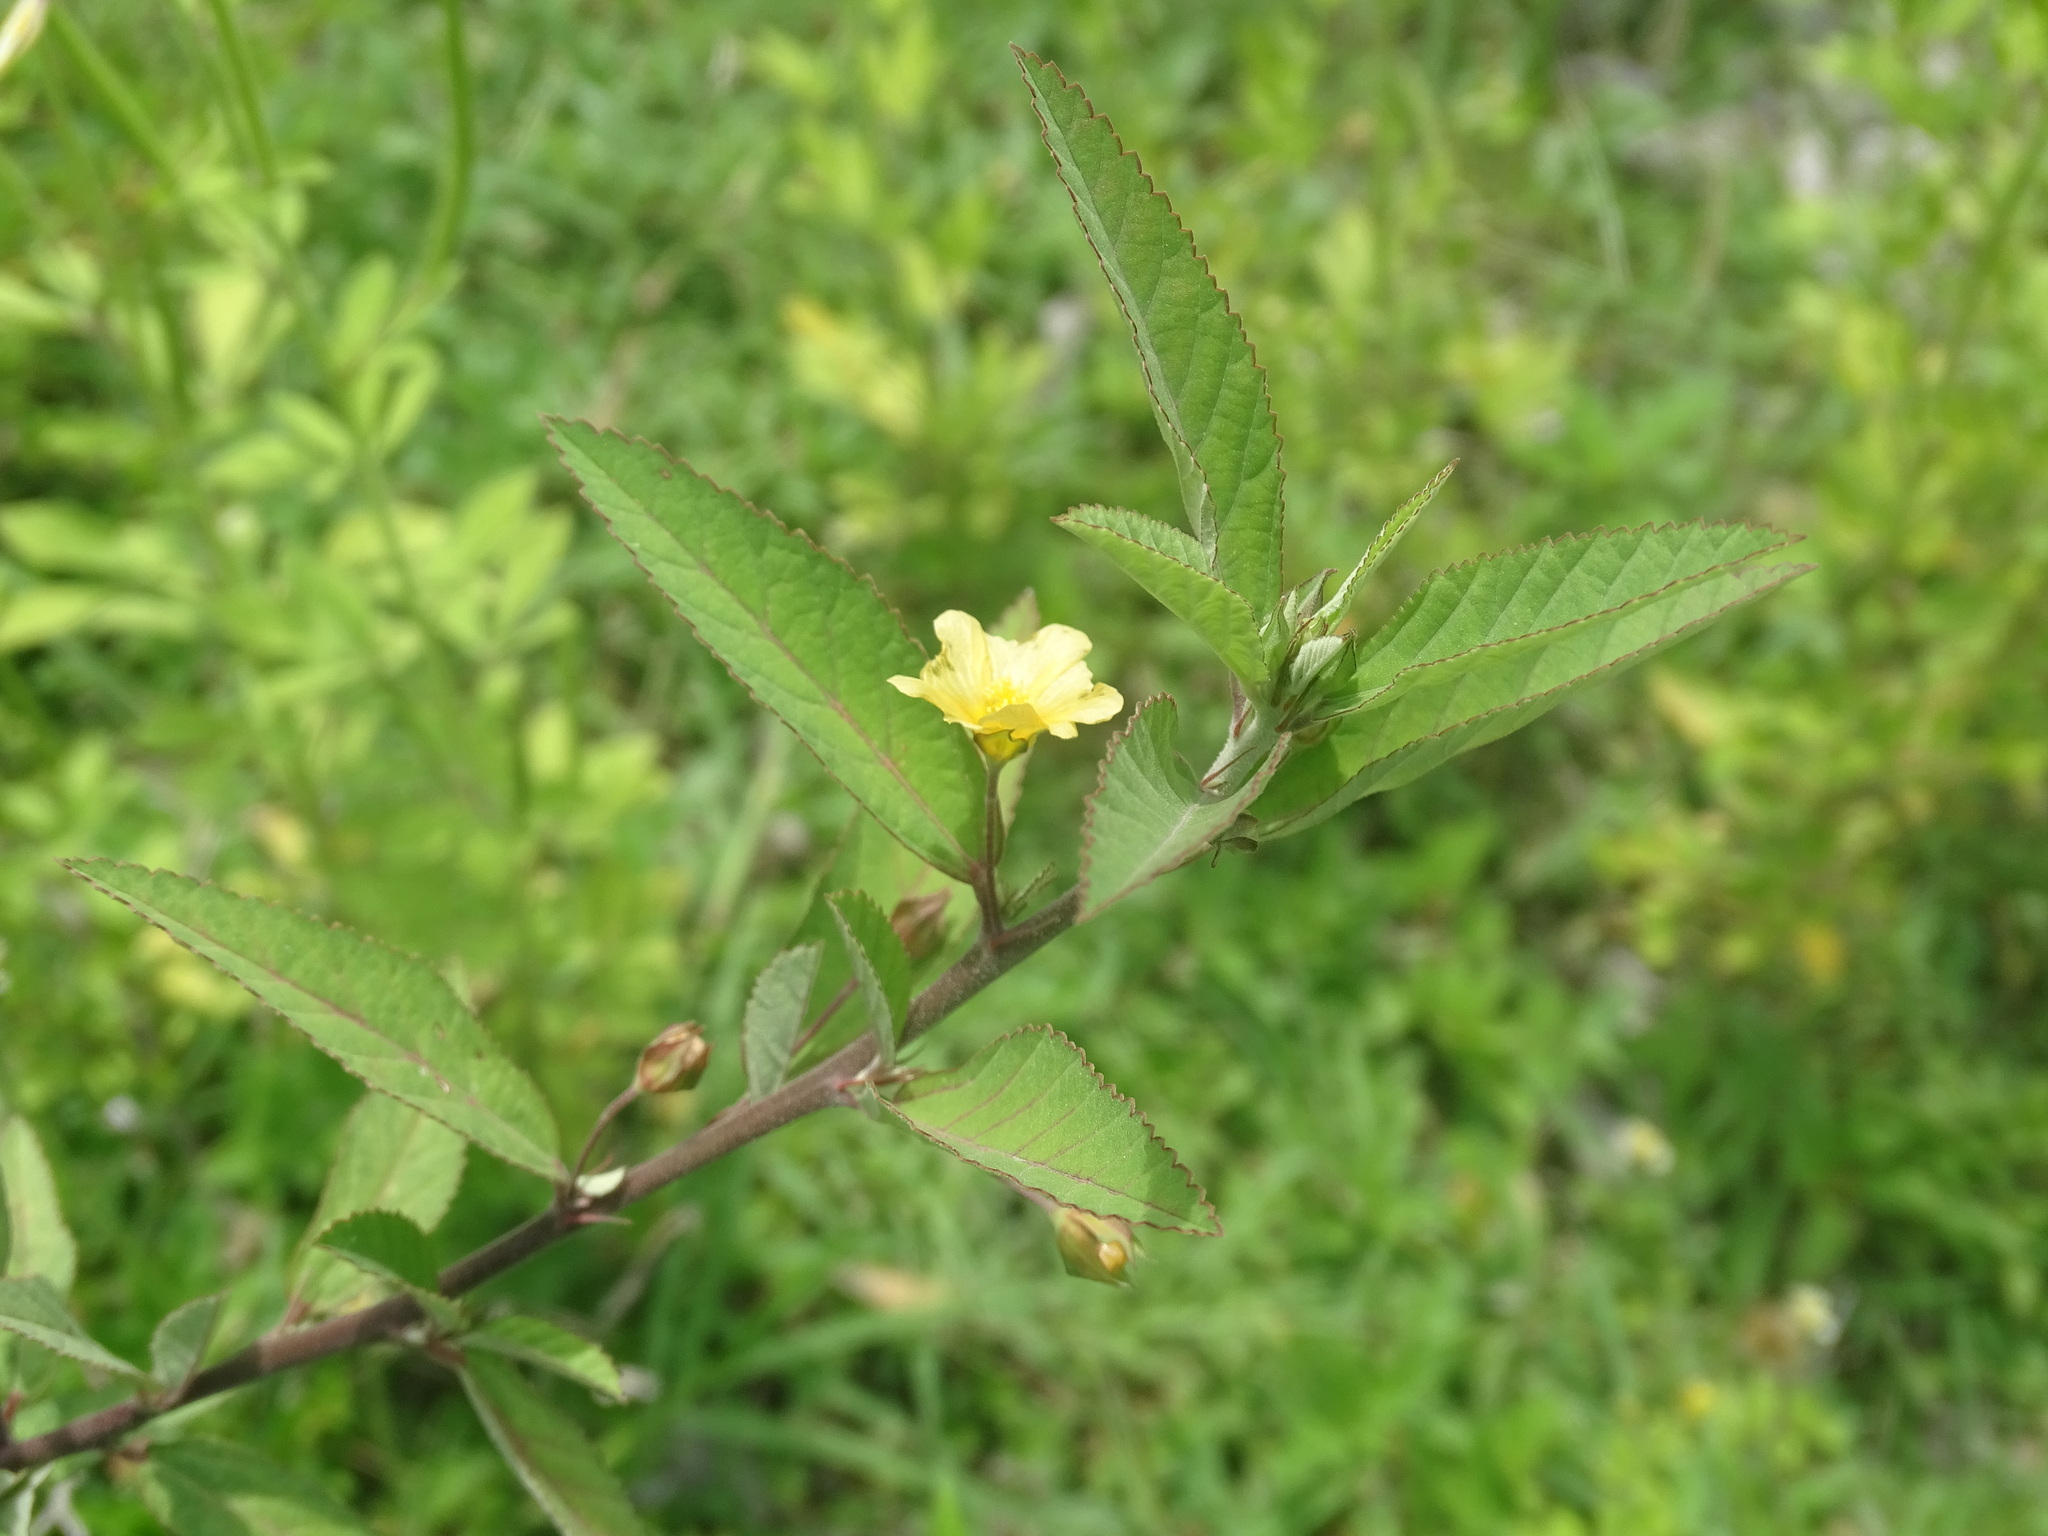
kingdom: Plantae
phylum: Tracheophyta
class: Magnoliopsida
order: Malvales
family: Malvaceae
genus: Sida
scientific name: Sida acuta
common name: Common wireweed
